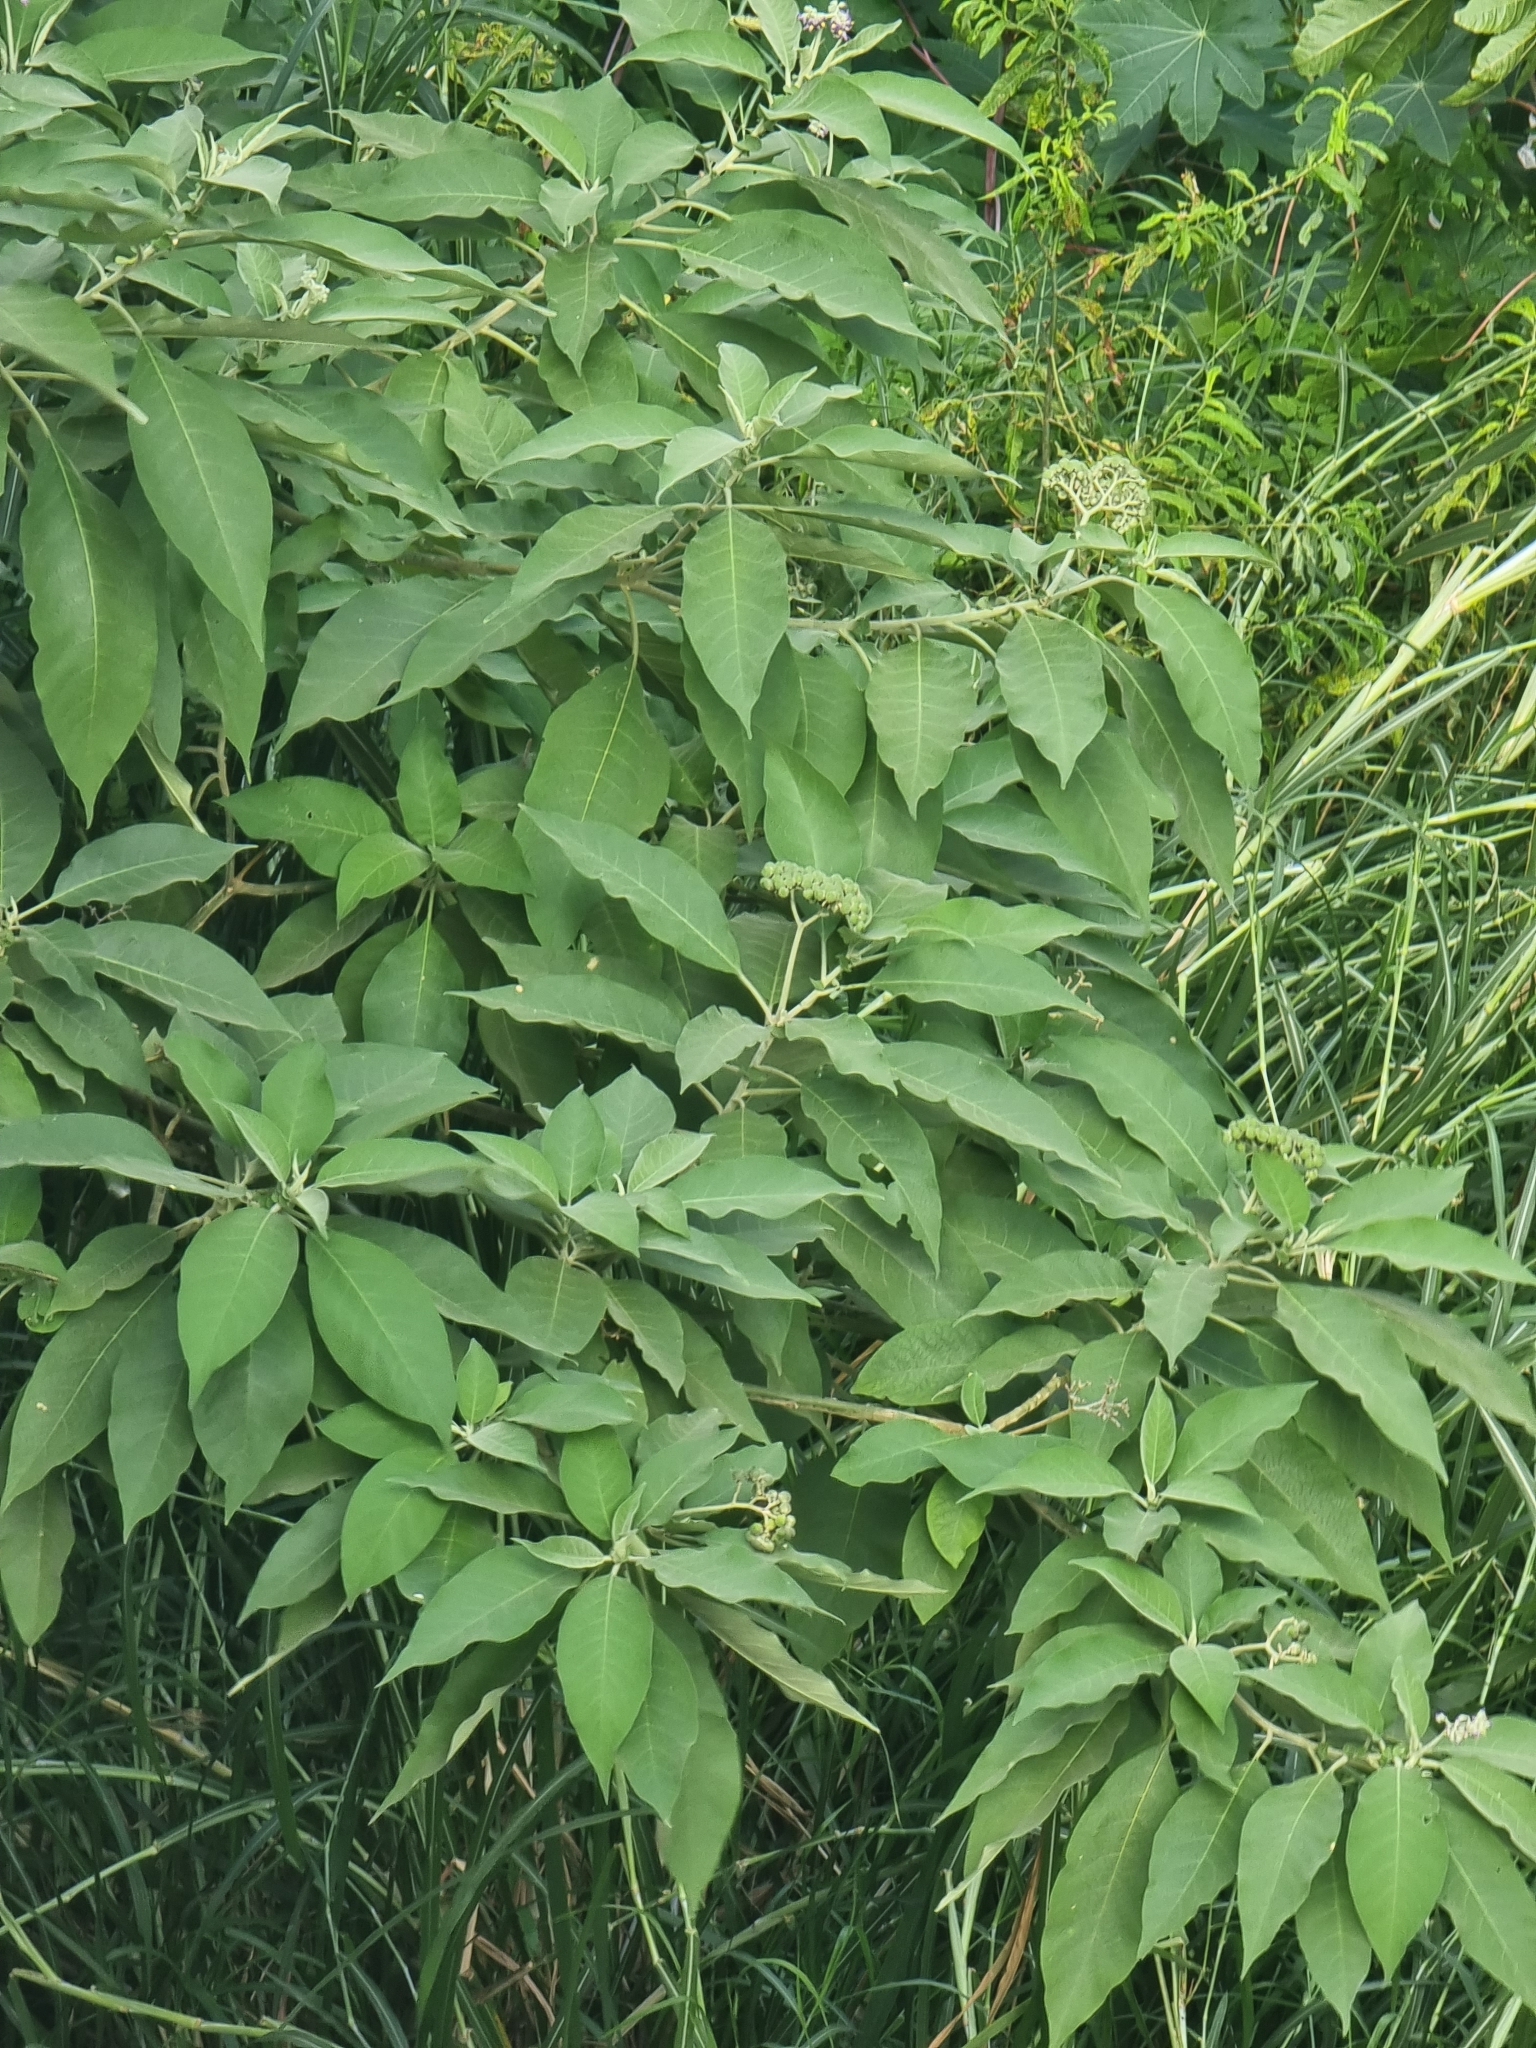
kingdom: Plantae
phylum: Tracheophyta
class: Magnoliopsida
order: Solanales
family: Solanaceae
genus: Solanum
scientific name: Solanum mauritianum
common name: Earleaf nightshade
